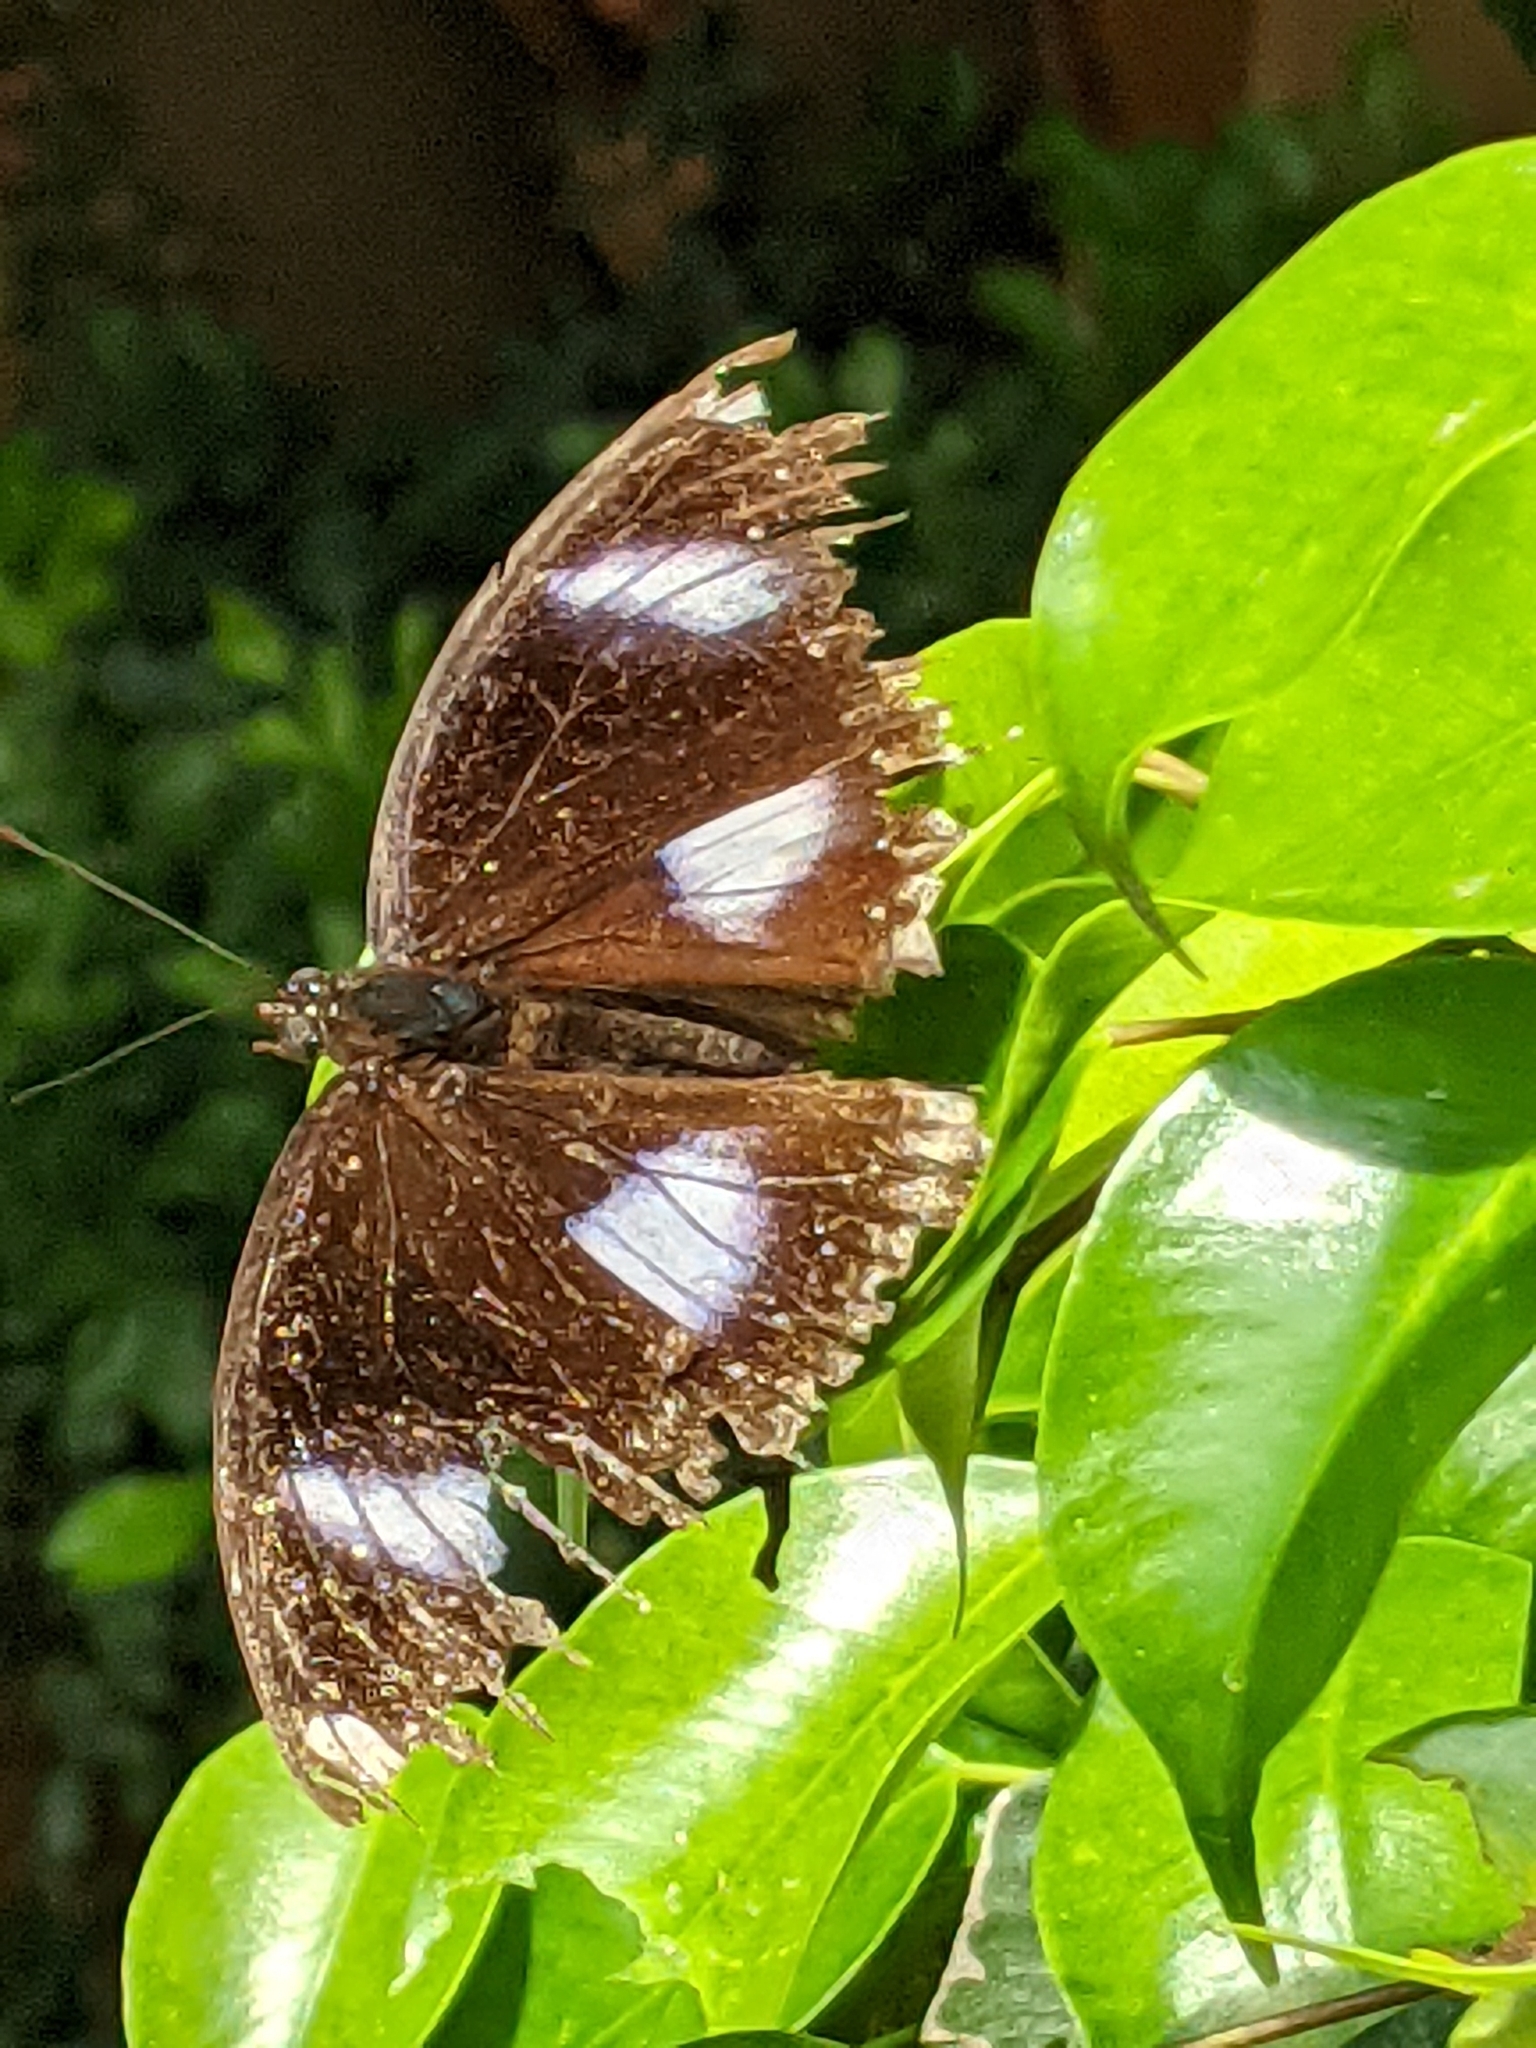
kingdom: Animalia
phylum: Arthropoda
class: Insecta
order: Lepidoptera
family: Nymphalidae
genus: Hypolimnas
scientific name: Hypolimnas bolina
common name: Great eggfly
